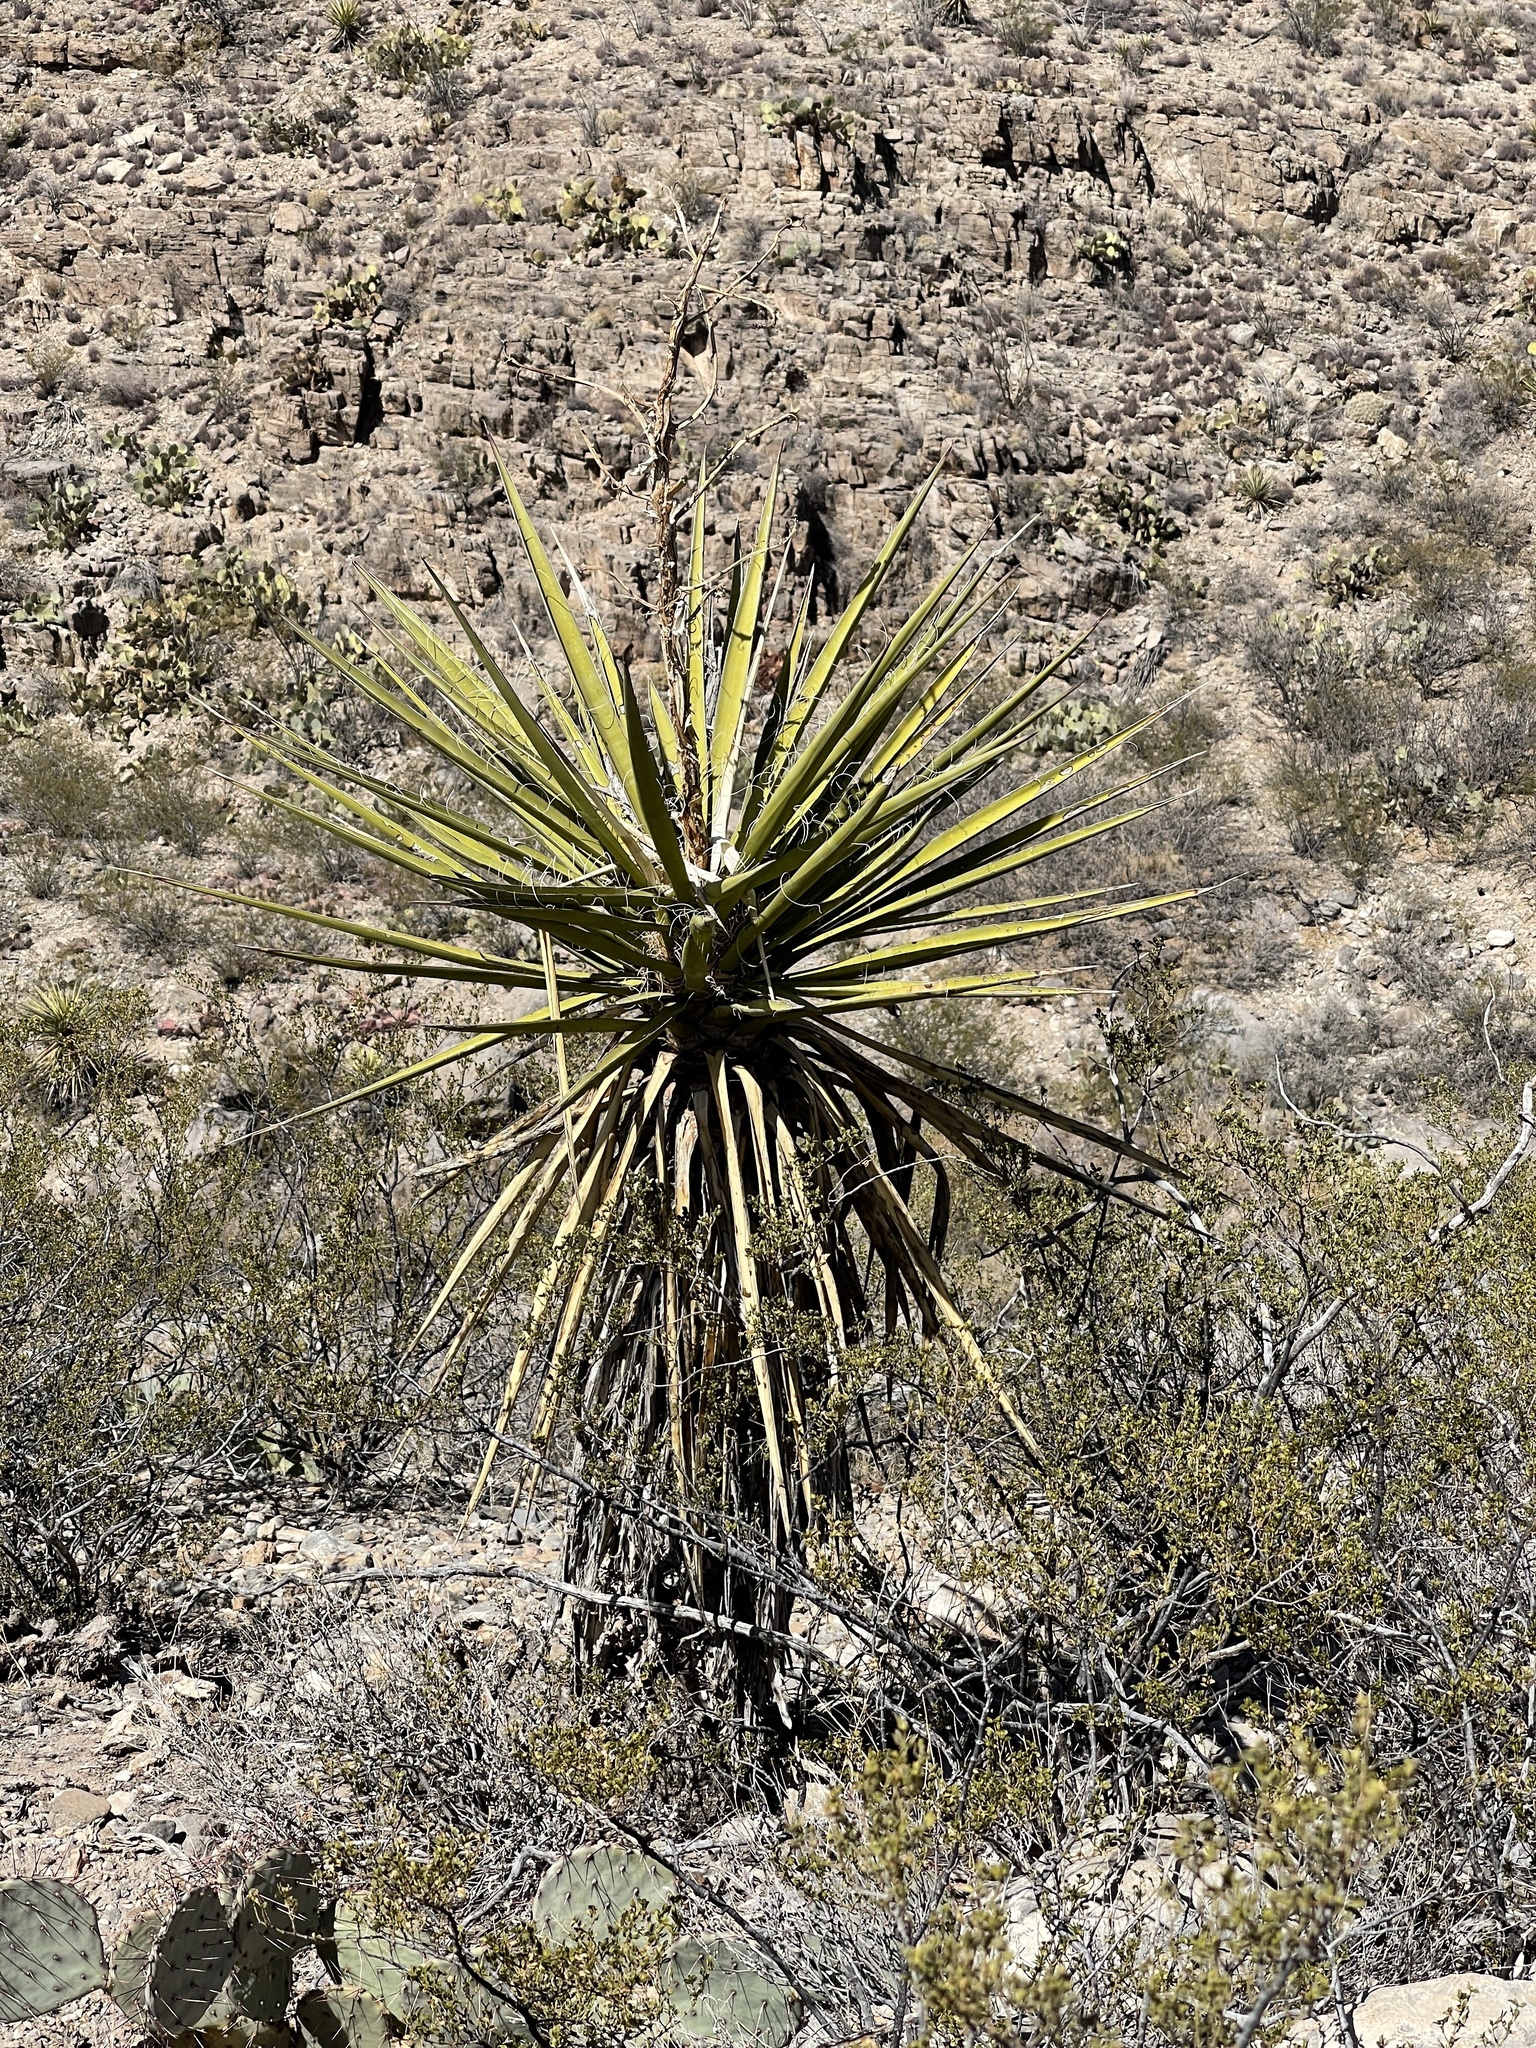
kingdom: Plantae
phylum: Tracheophyta
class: Liliopsida
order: Asparagales
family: Asparagaceae
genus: Yucca
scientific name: Yucca treculiana
